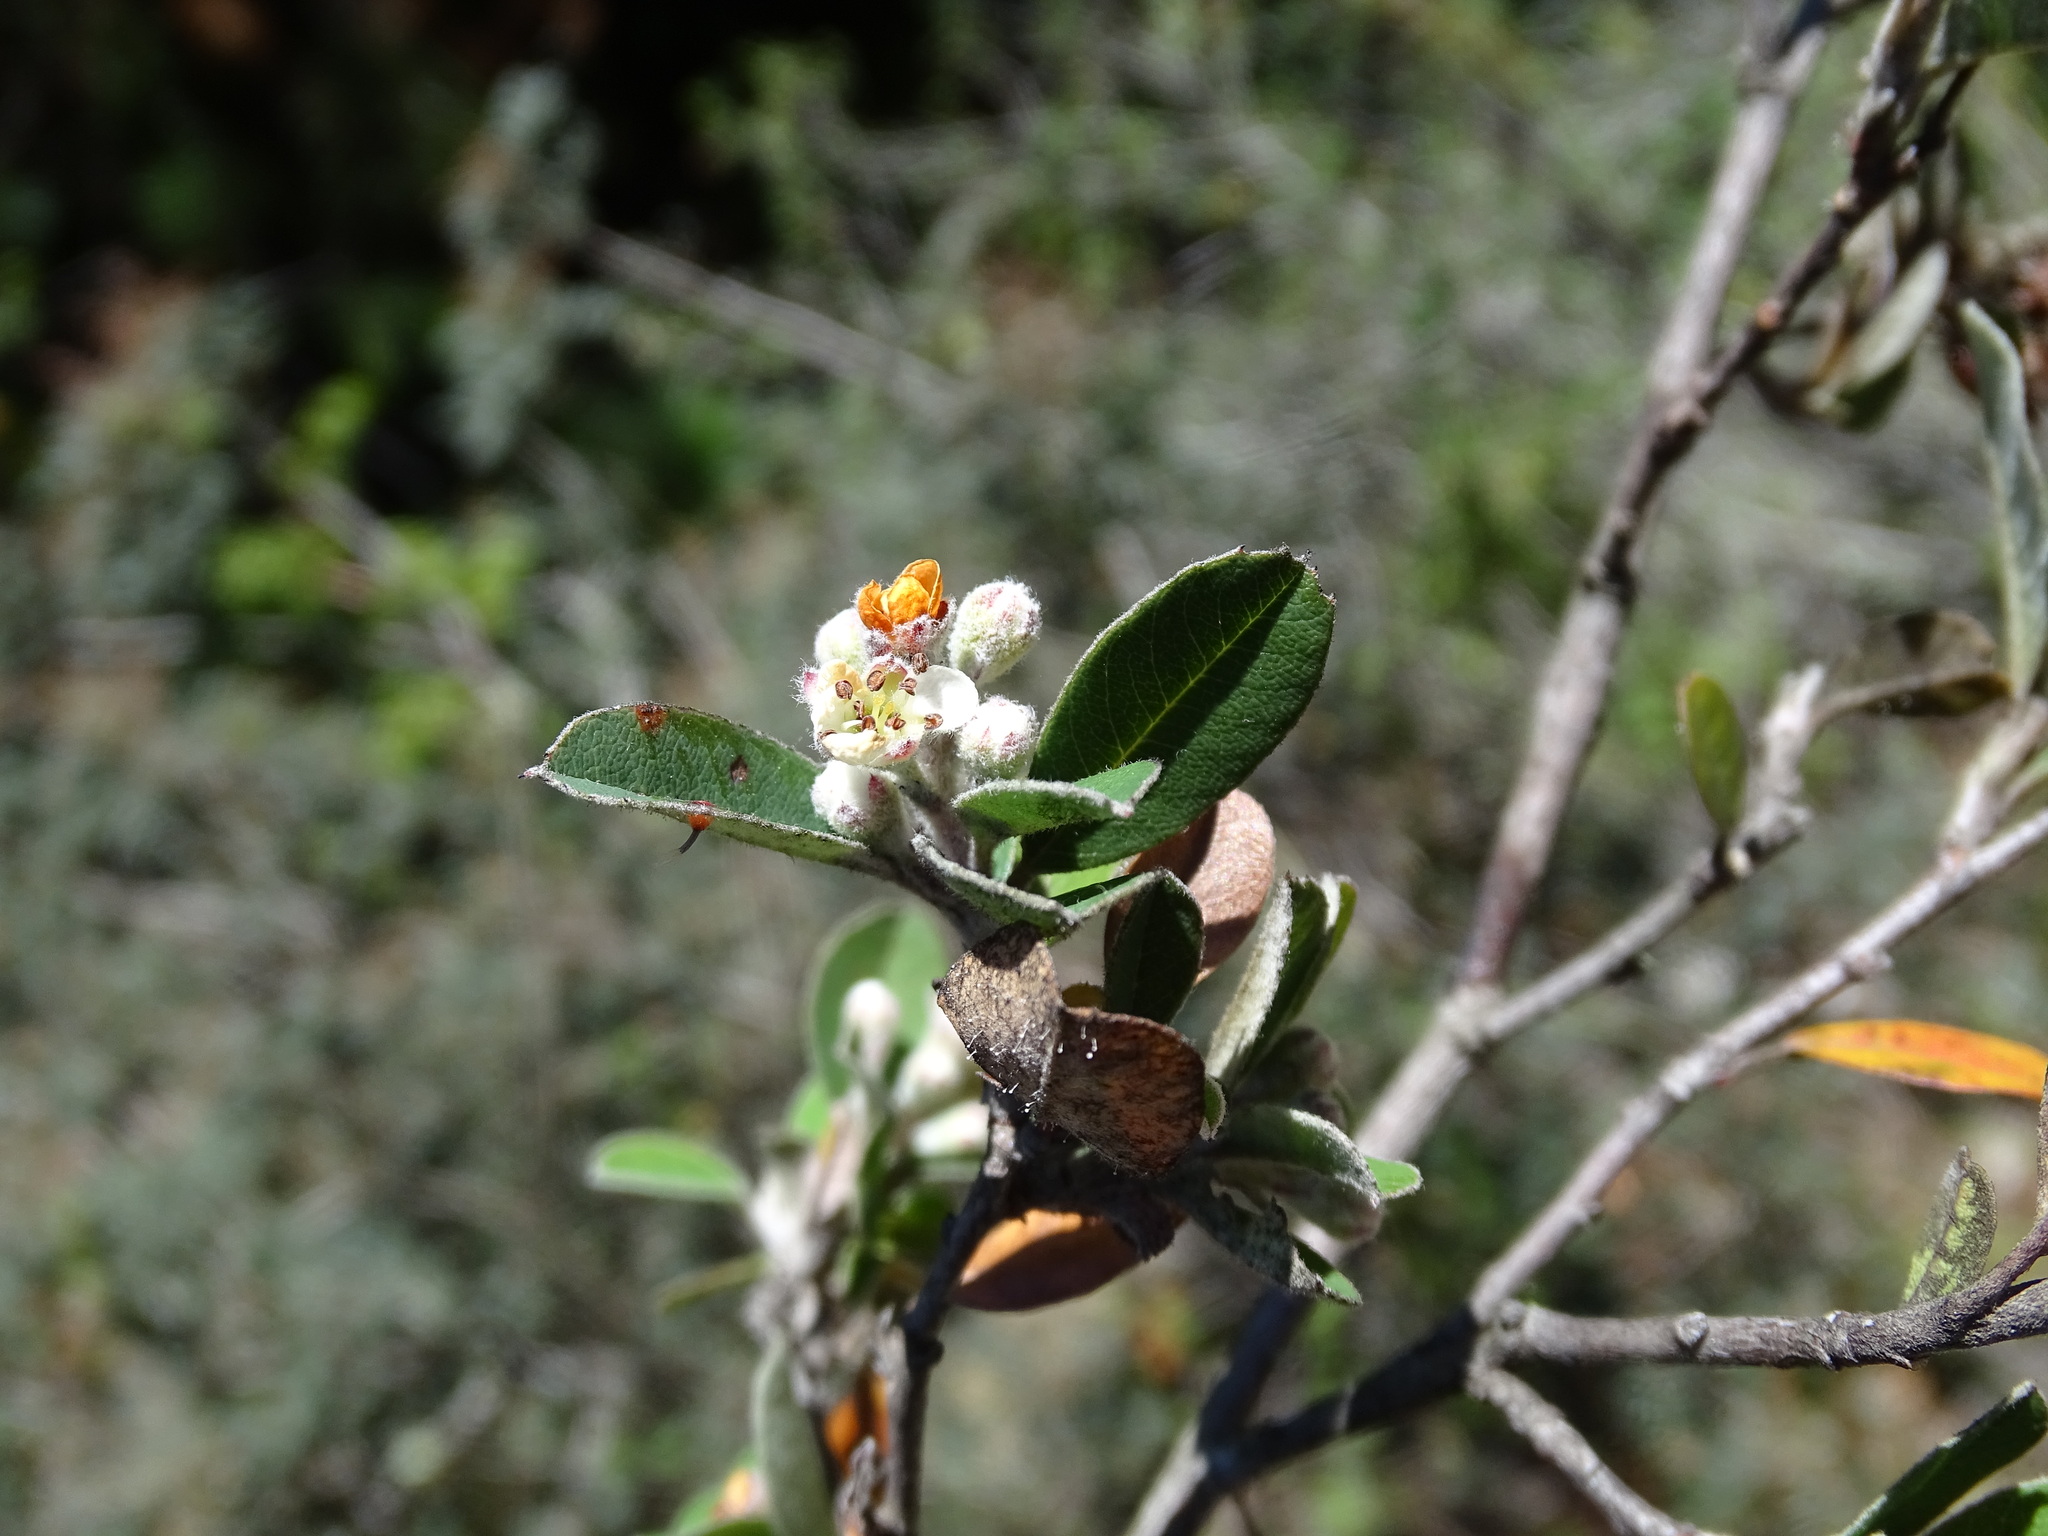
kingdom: Plantae
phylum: Tracheophyta
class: Magnoliopsida
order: Rosales
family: Rosaceae
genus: Malacomeles
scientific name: Malacomeles denticulata
